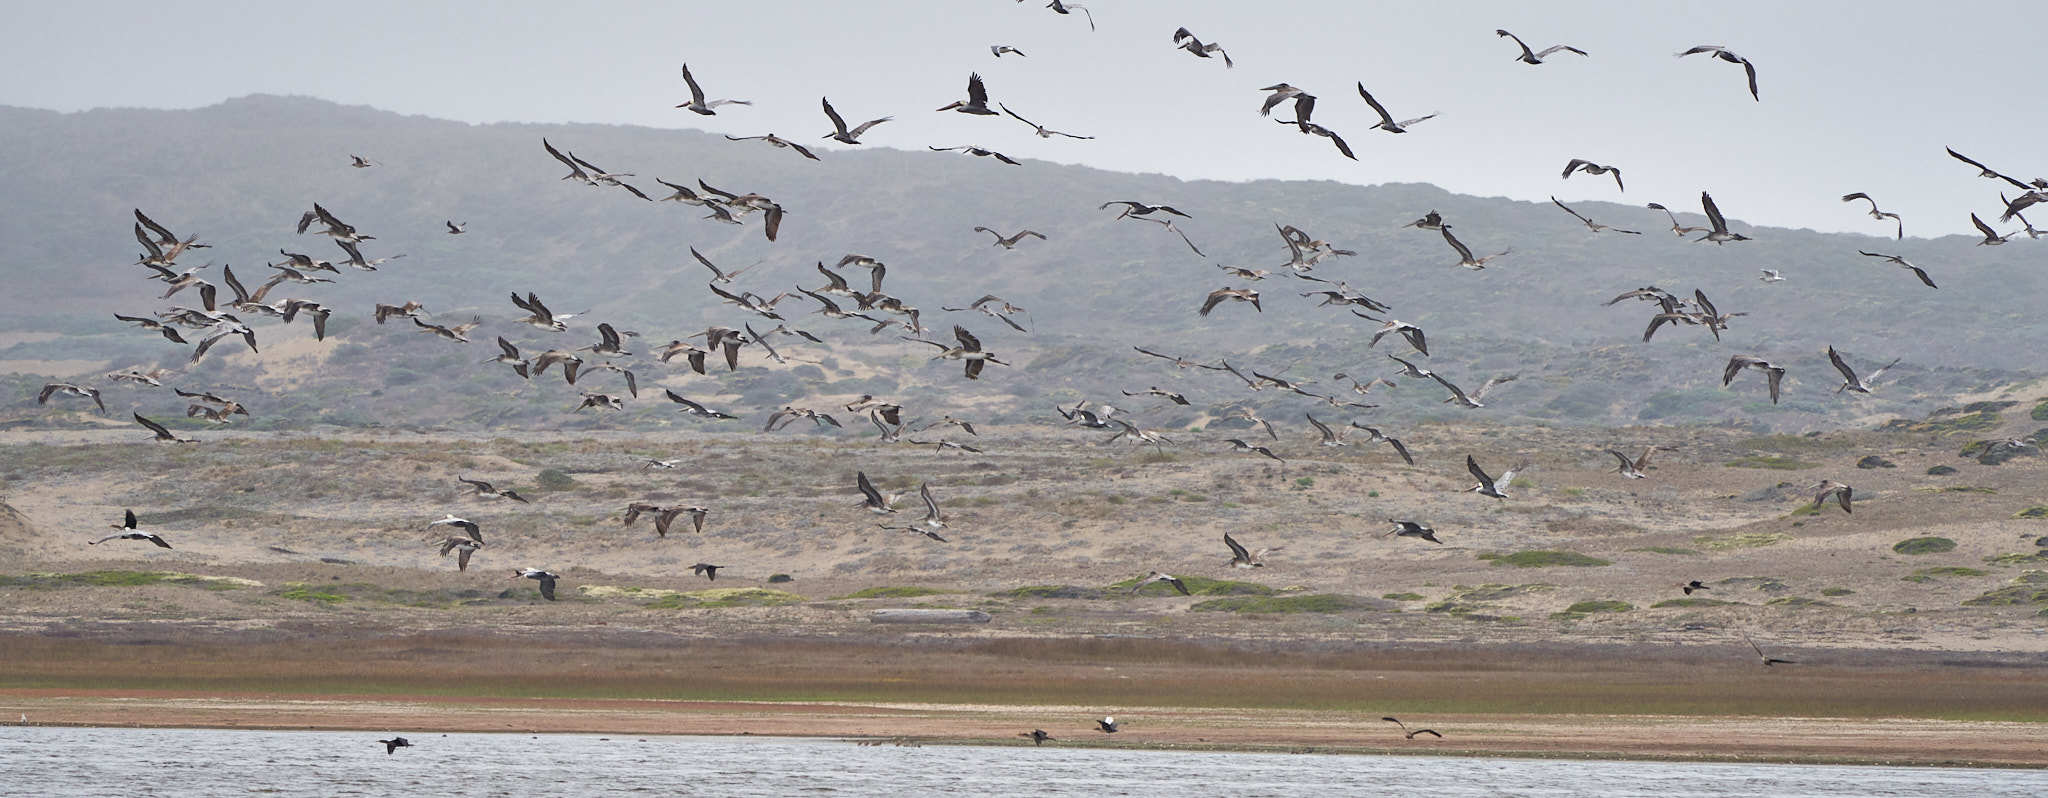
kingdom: Animalia
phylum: Chordata
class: Aves
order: Pelecaniformes
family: Pelecanidae
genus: Pelecanus
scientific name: Pelecanus occidentalis
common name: Brown pelican
